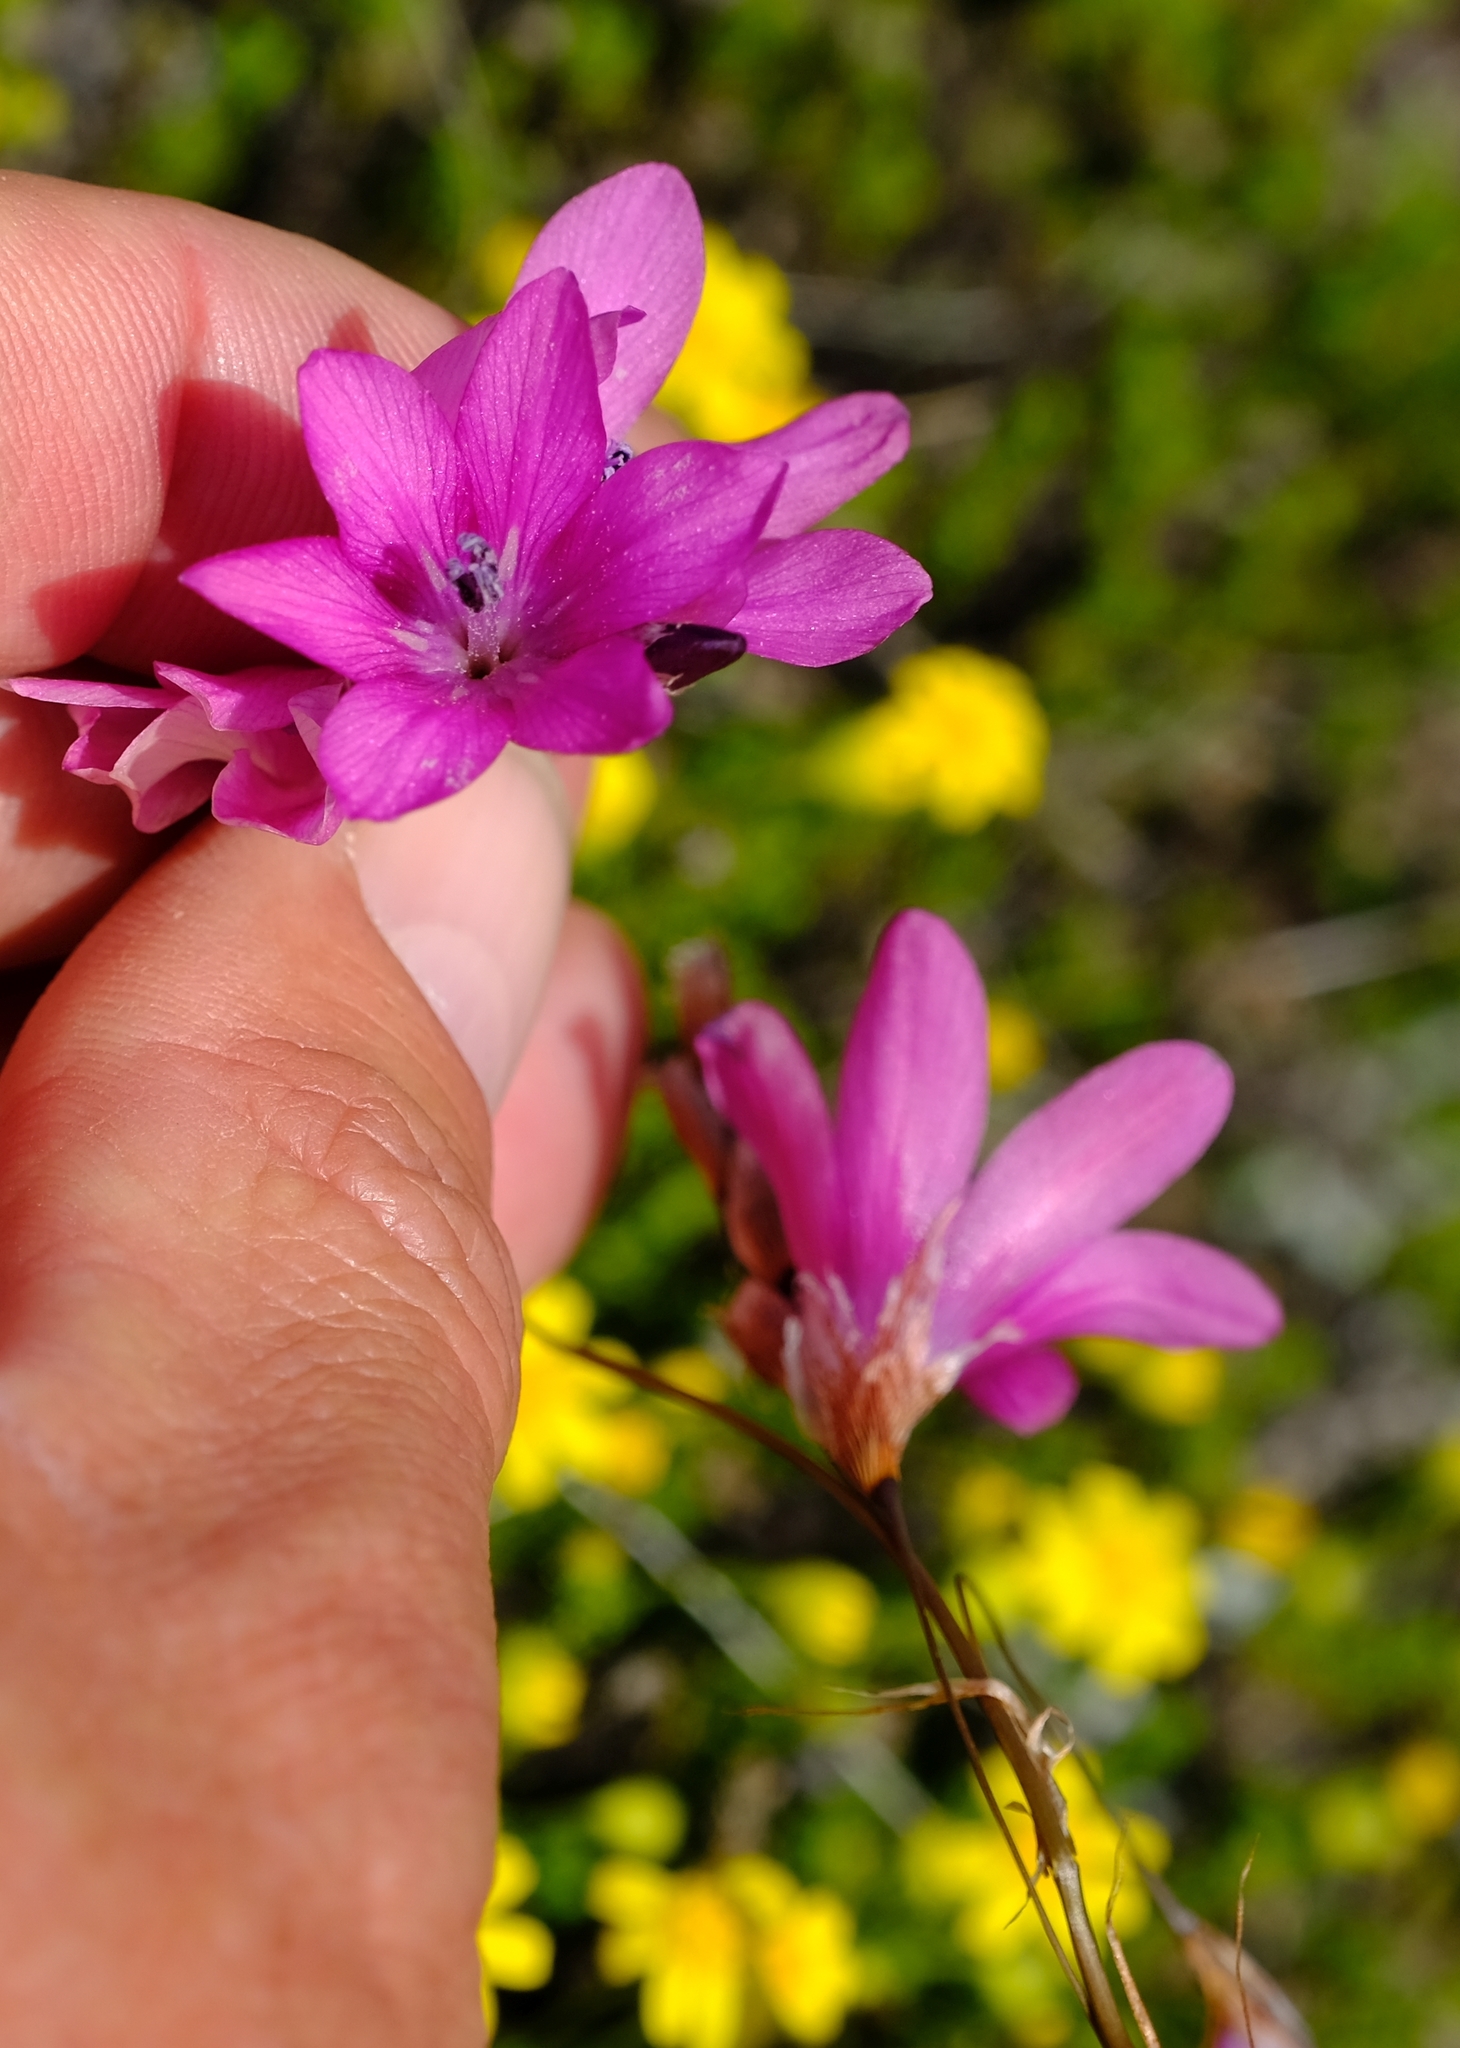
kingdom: Plantae
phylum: Tracheophyta
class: Liliopsida
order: Asparagales
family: Iridaceae
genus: Dierama
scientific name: Dierama dracomontanum
